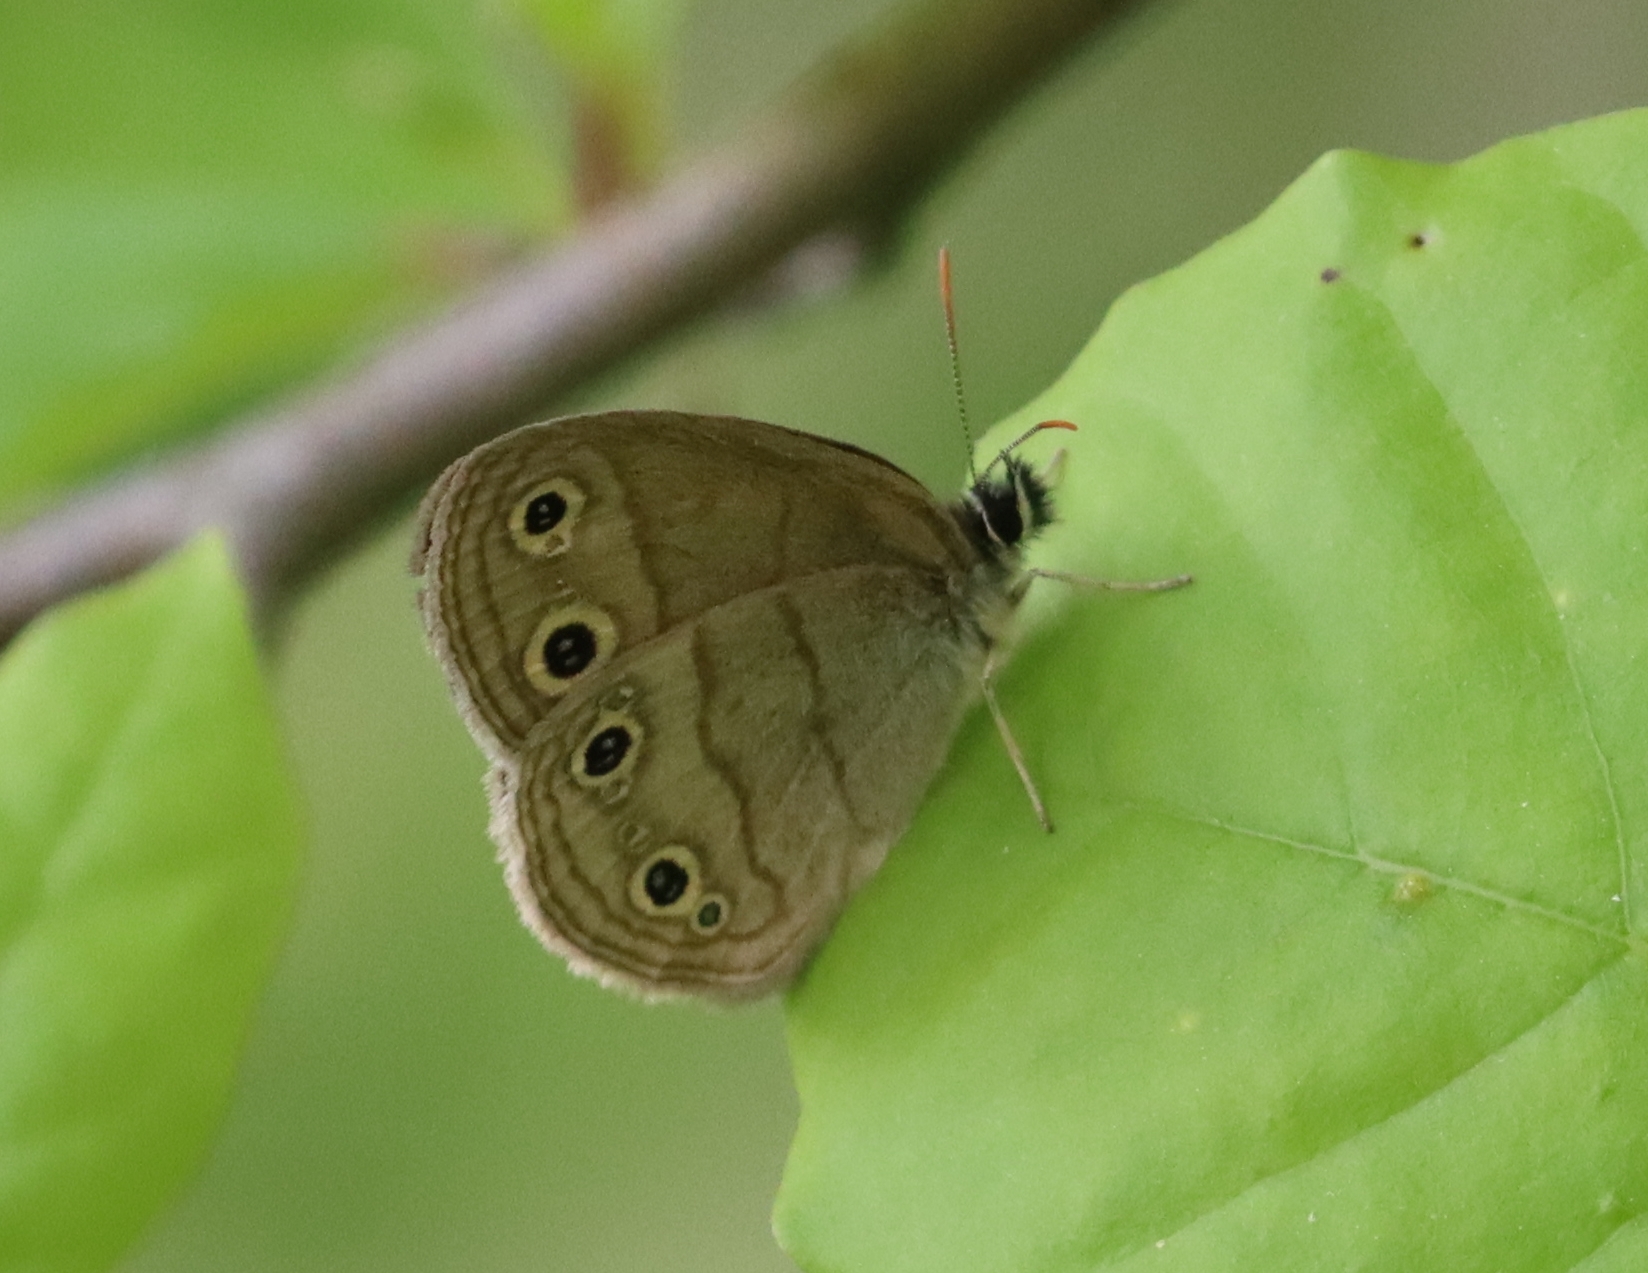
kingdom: Animalia
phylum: Arthropoda
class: Insecta
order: Lepidoptera
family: Nymphalidae
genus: Euptychia
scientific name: Euptychia cymela
